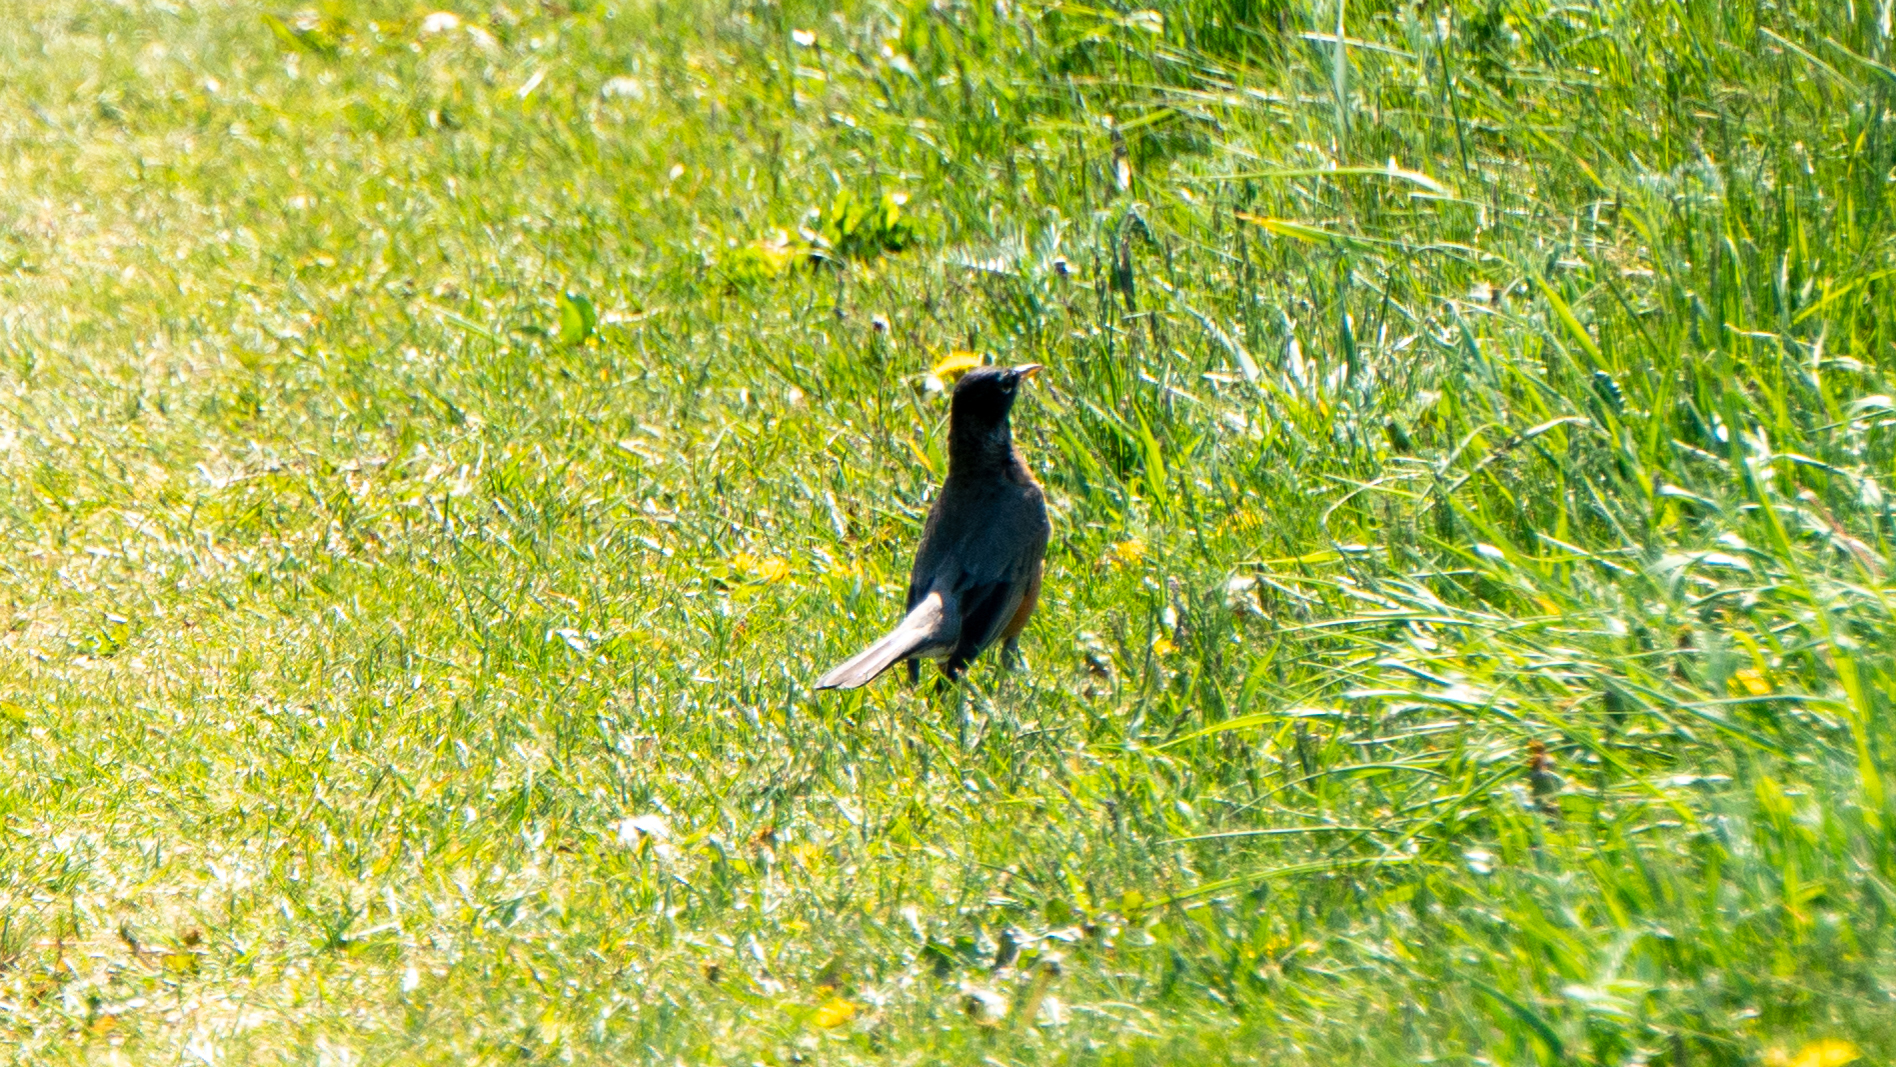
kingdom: Animalia
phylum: Chordata
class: Aves
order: Passeriformes
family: Turdidae
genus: Turdus
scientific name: Turdus migratorius
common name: American robin
